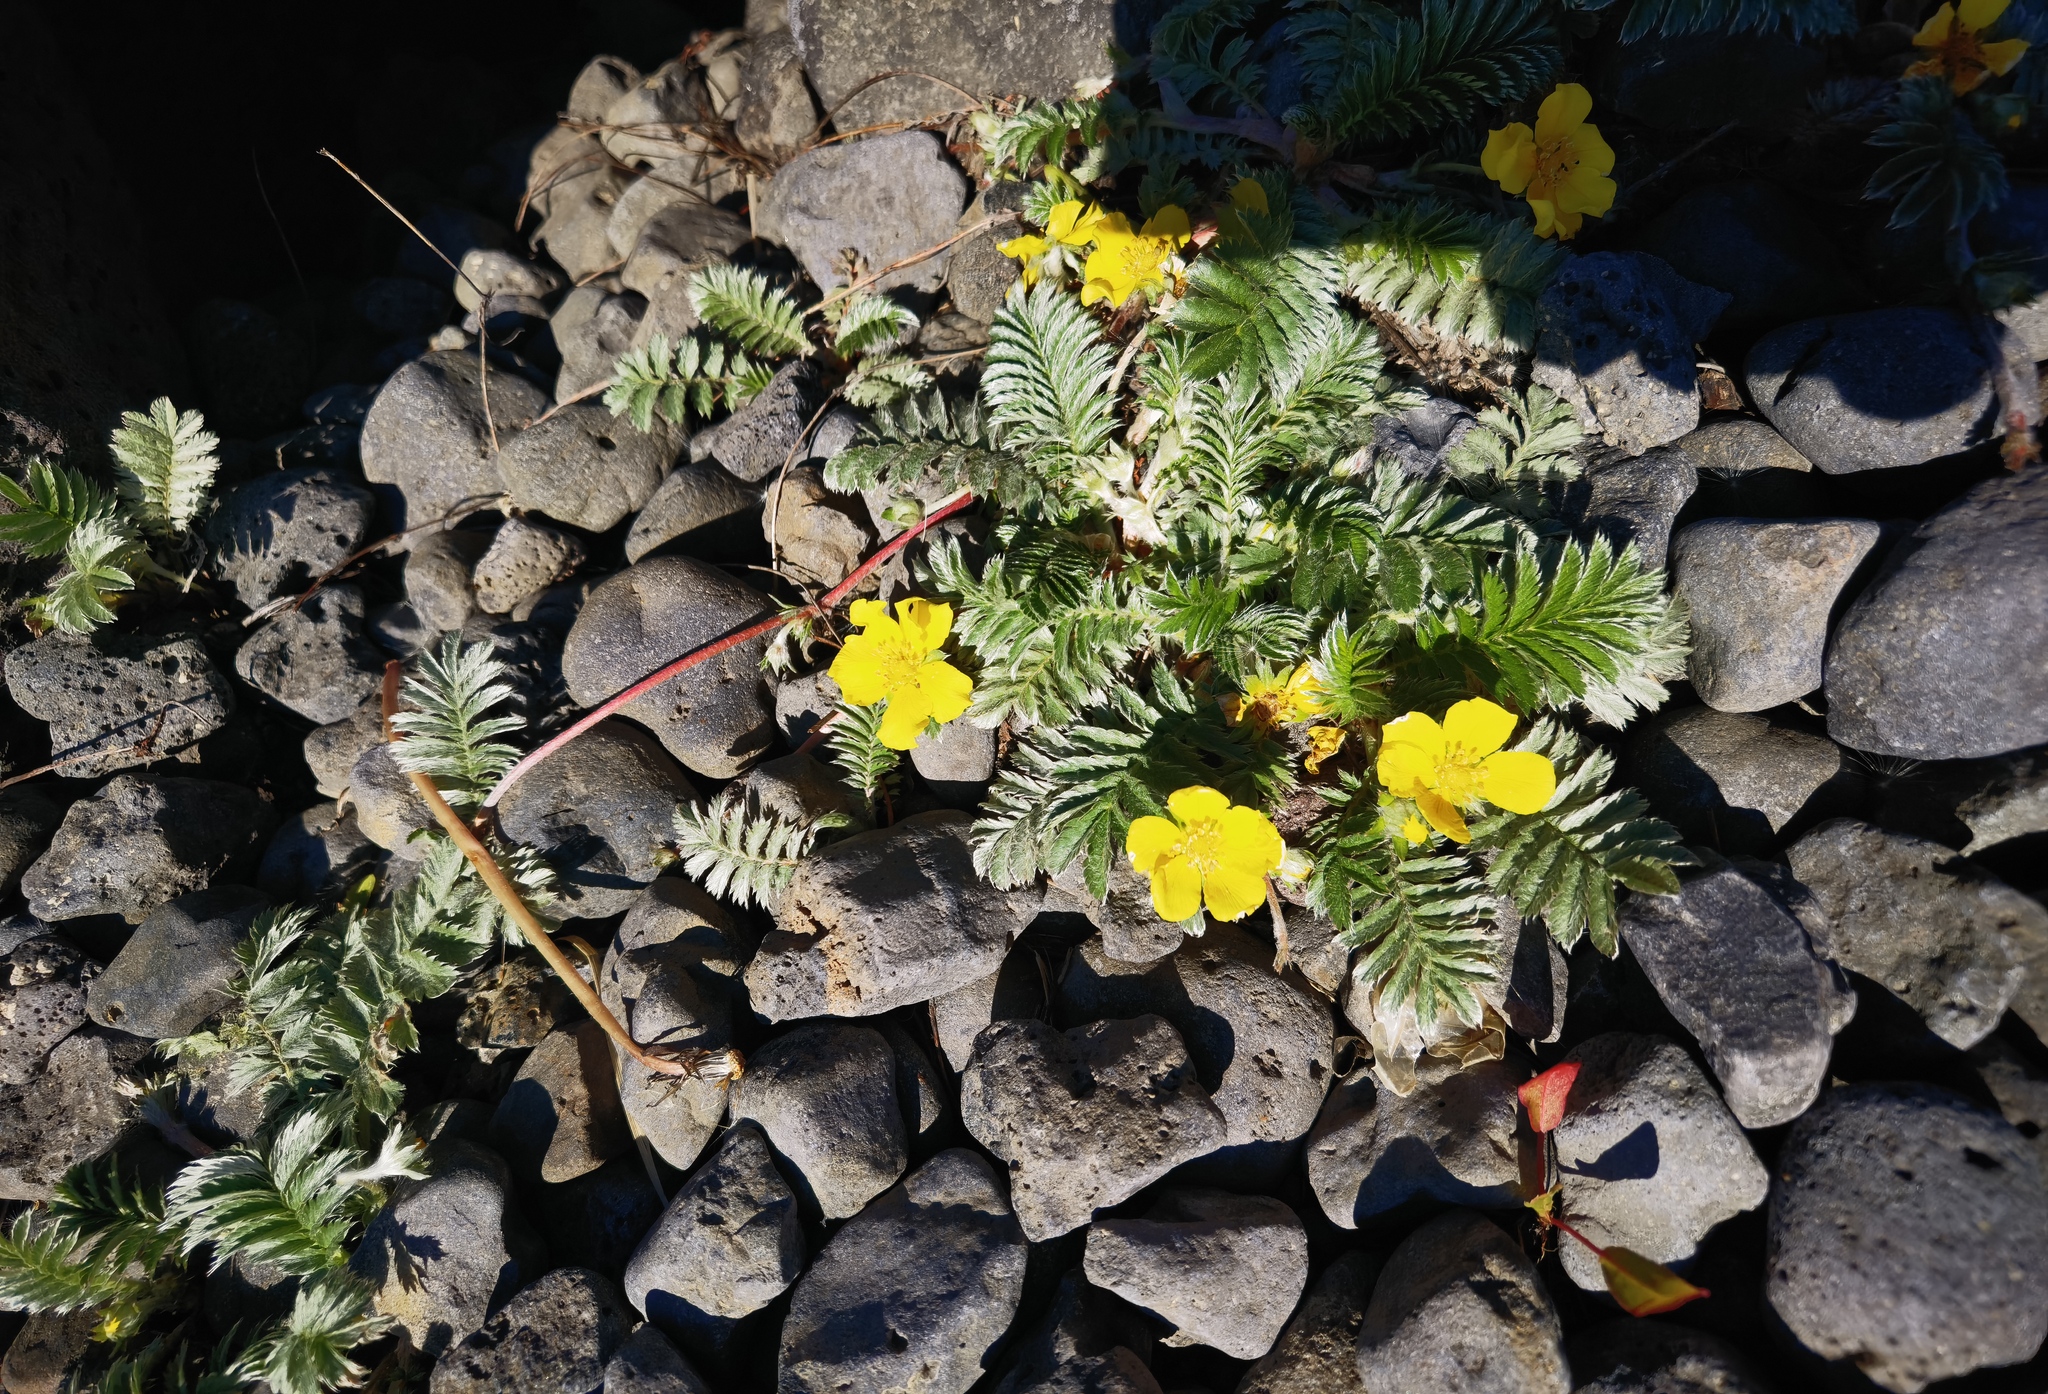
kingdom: Plantae
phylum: Tracheophyta
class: Magnoliopsida
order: Rosales
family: Rosaceae
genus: Argentina
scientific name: Argentina anserina
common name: Common silverweed
